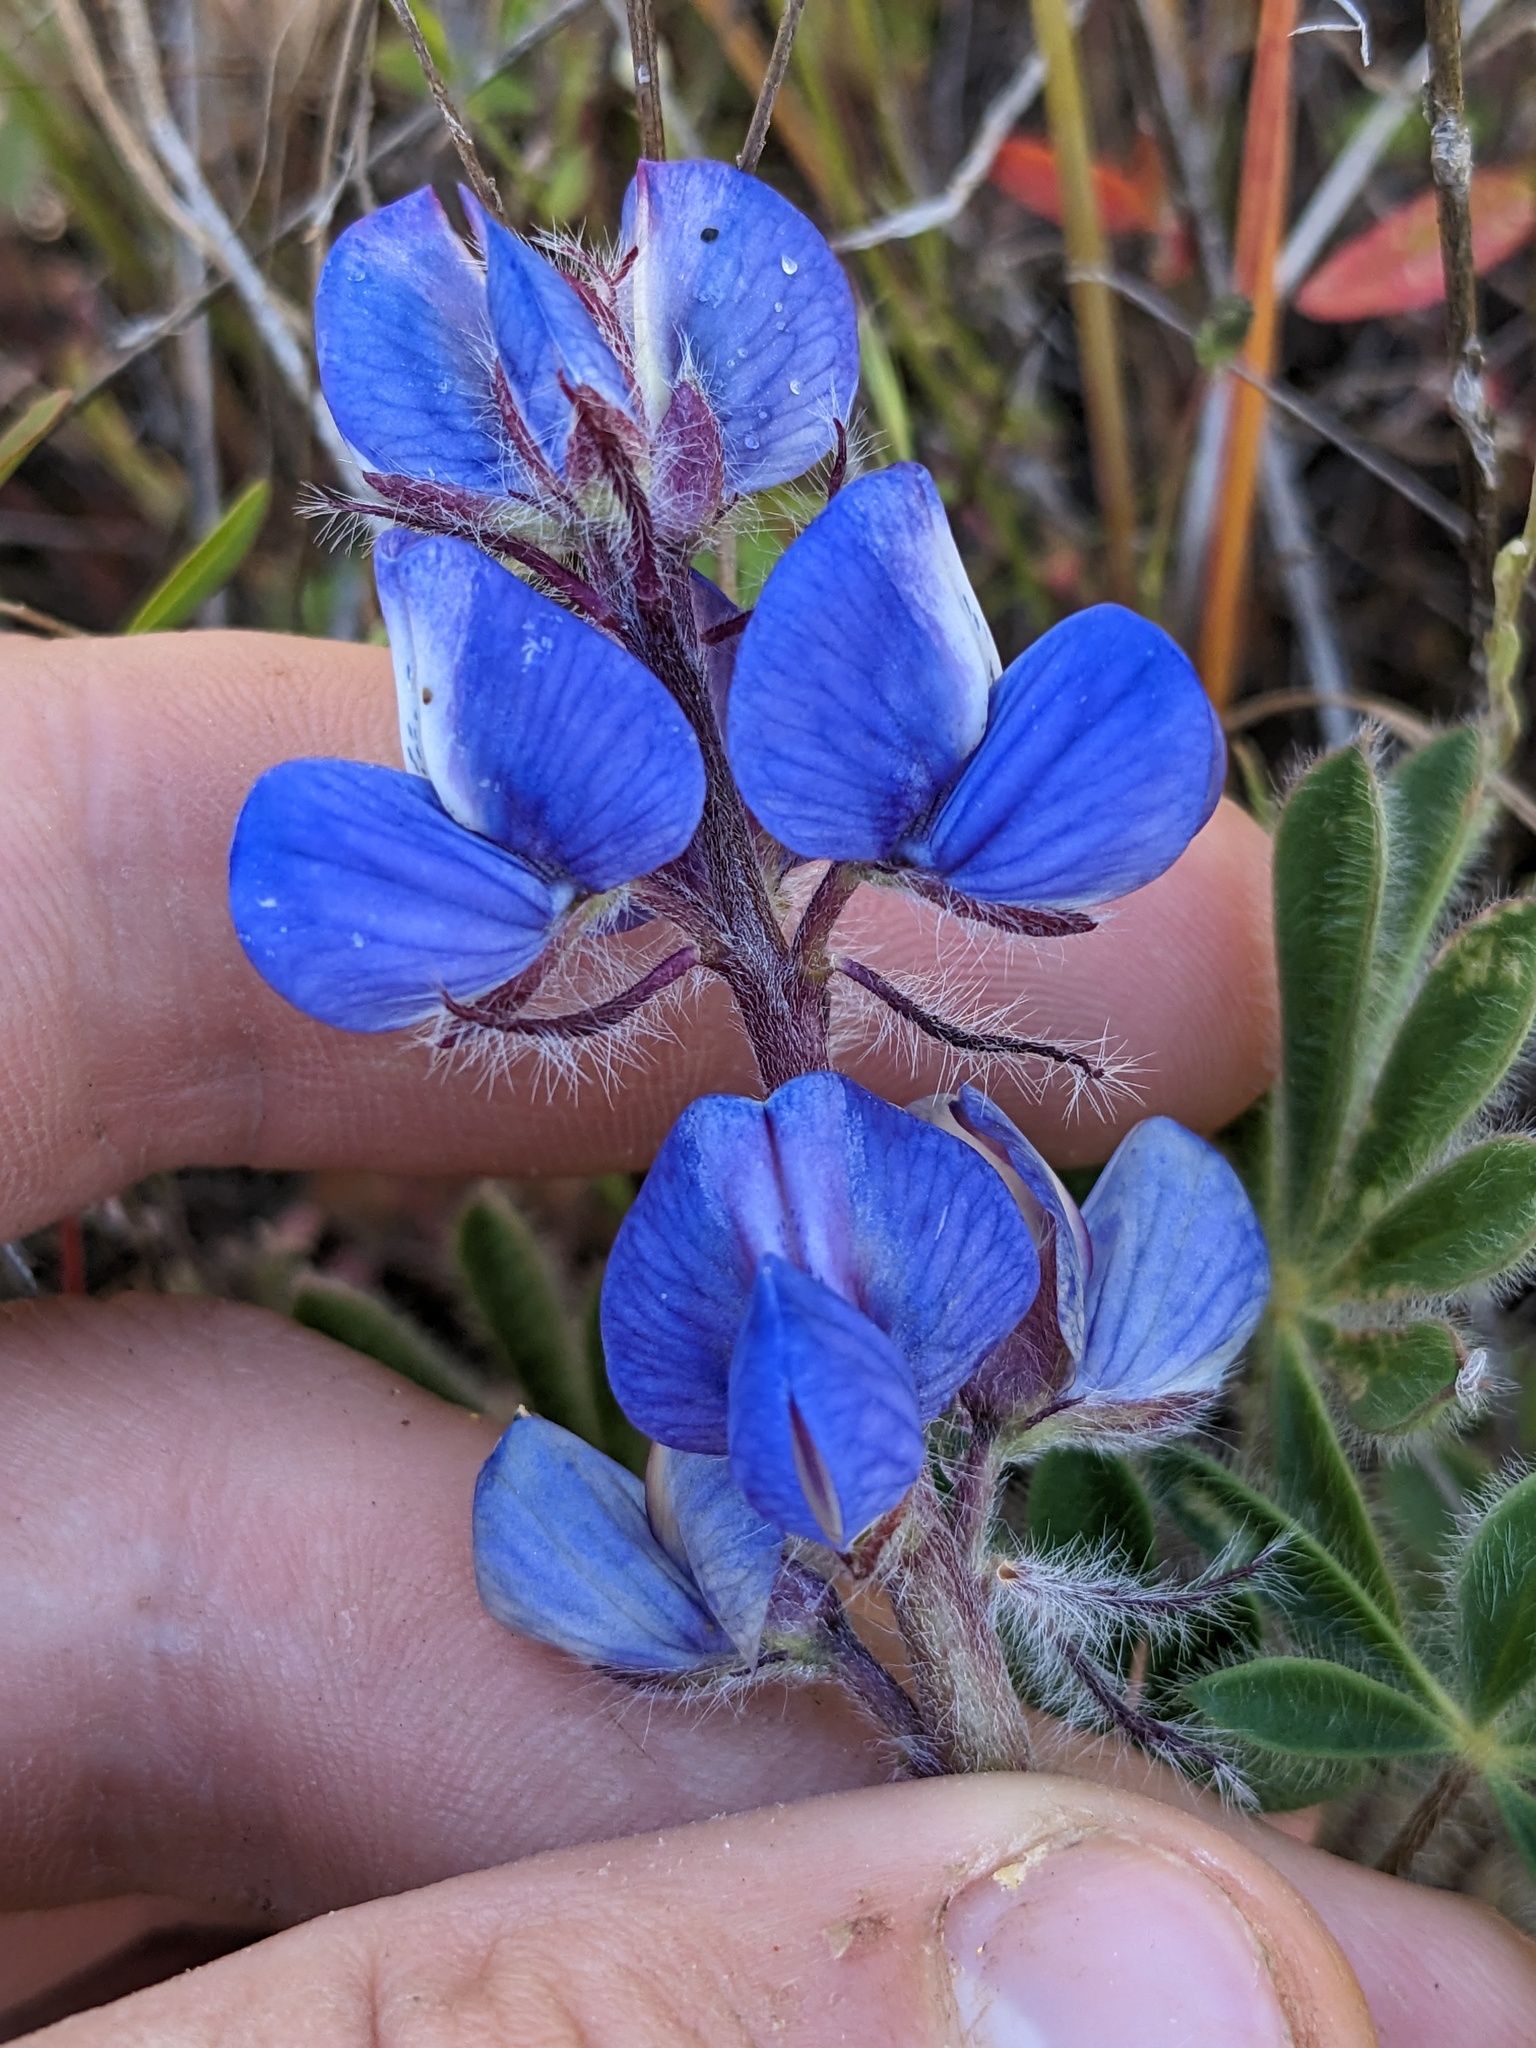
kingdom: Plantae
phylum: Tracheophyta
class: Magnoliopsida
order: Fabales
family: Fabaceae
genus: Lupinus
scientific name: Lupinus spectabilis
